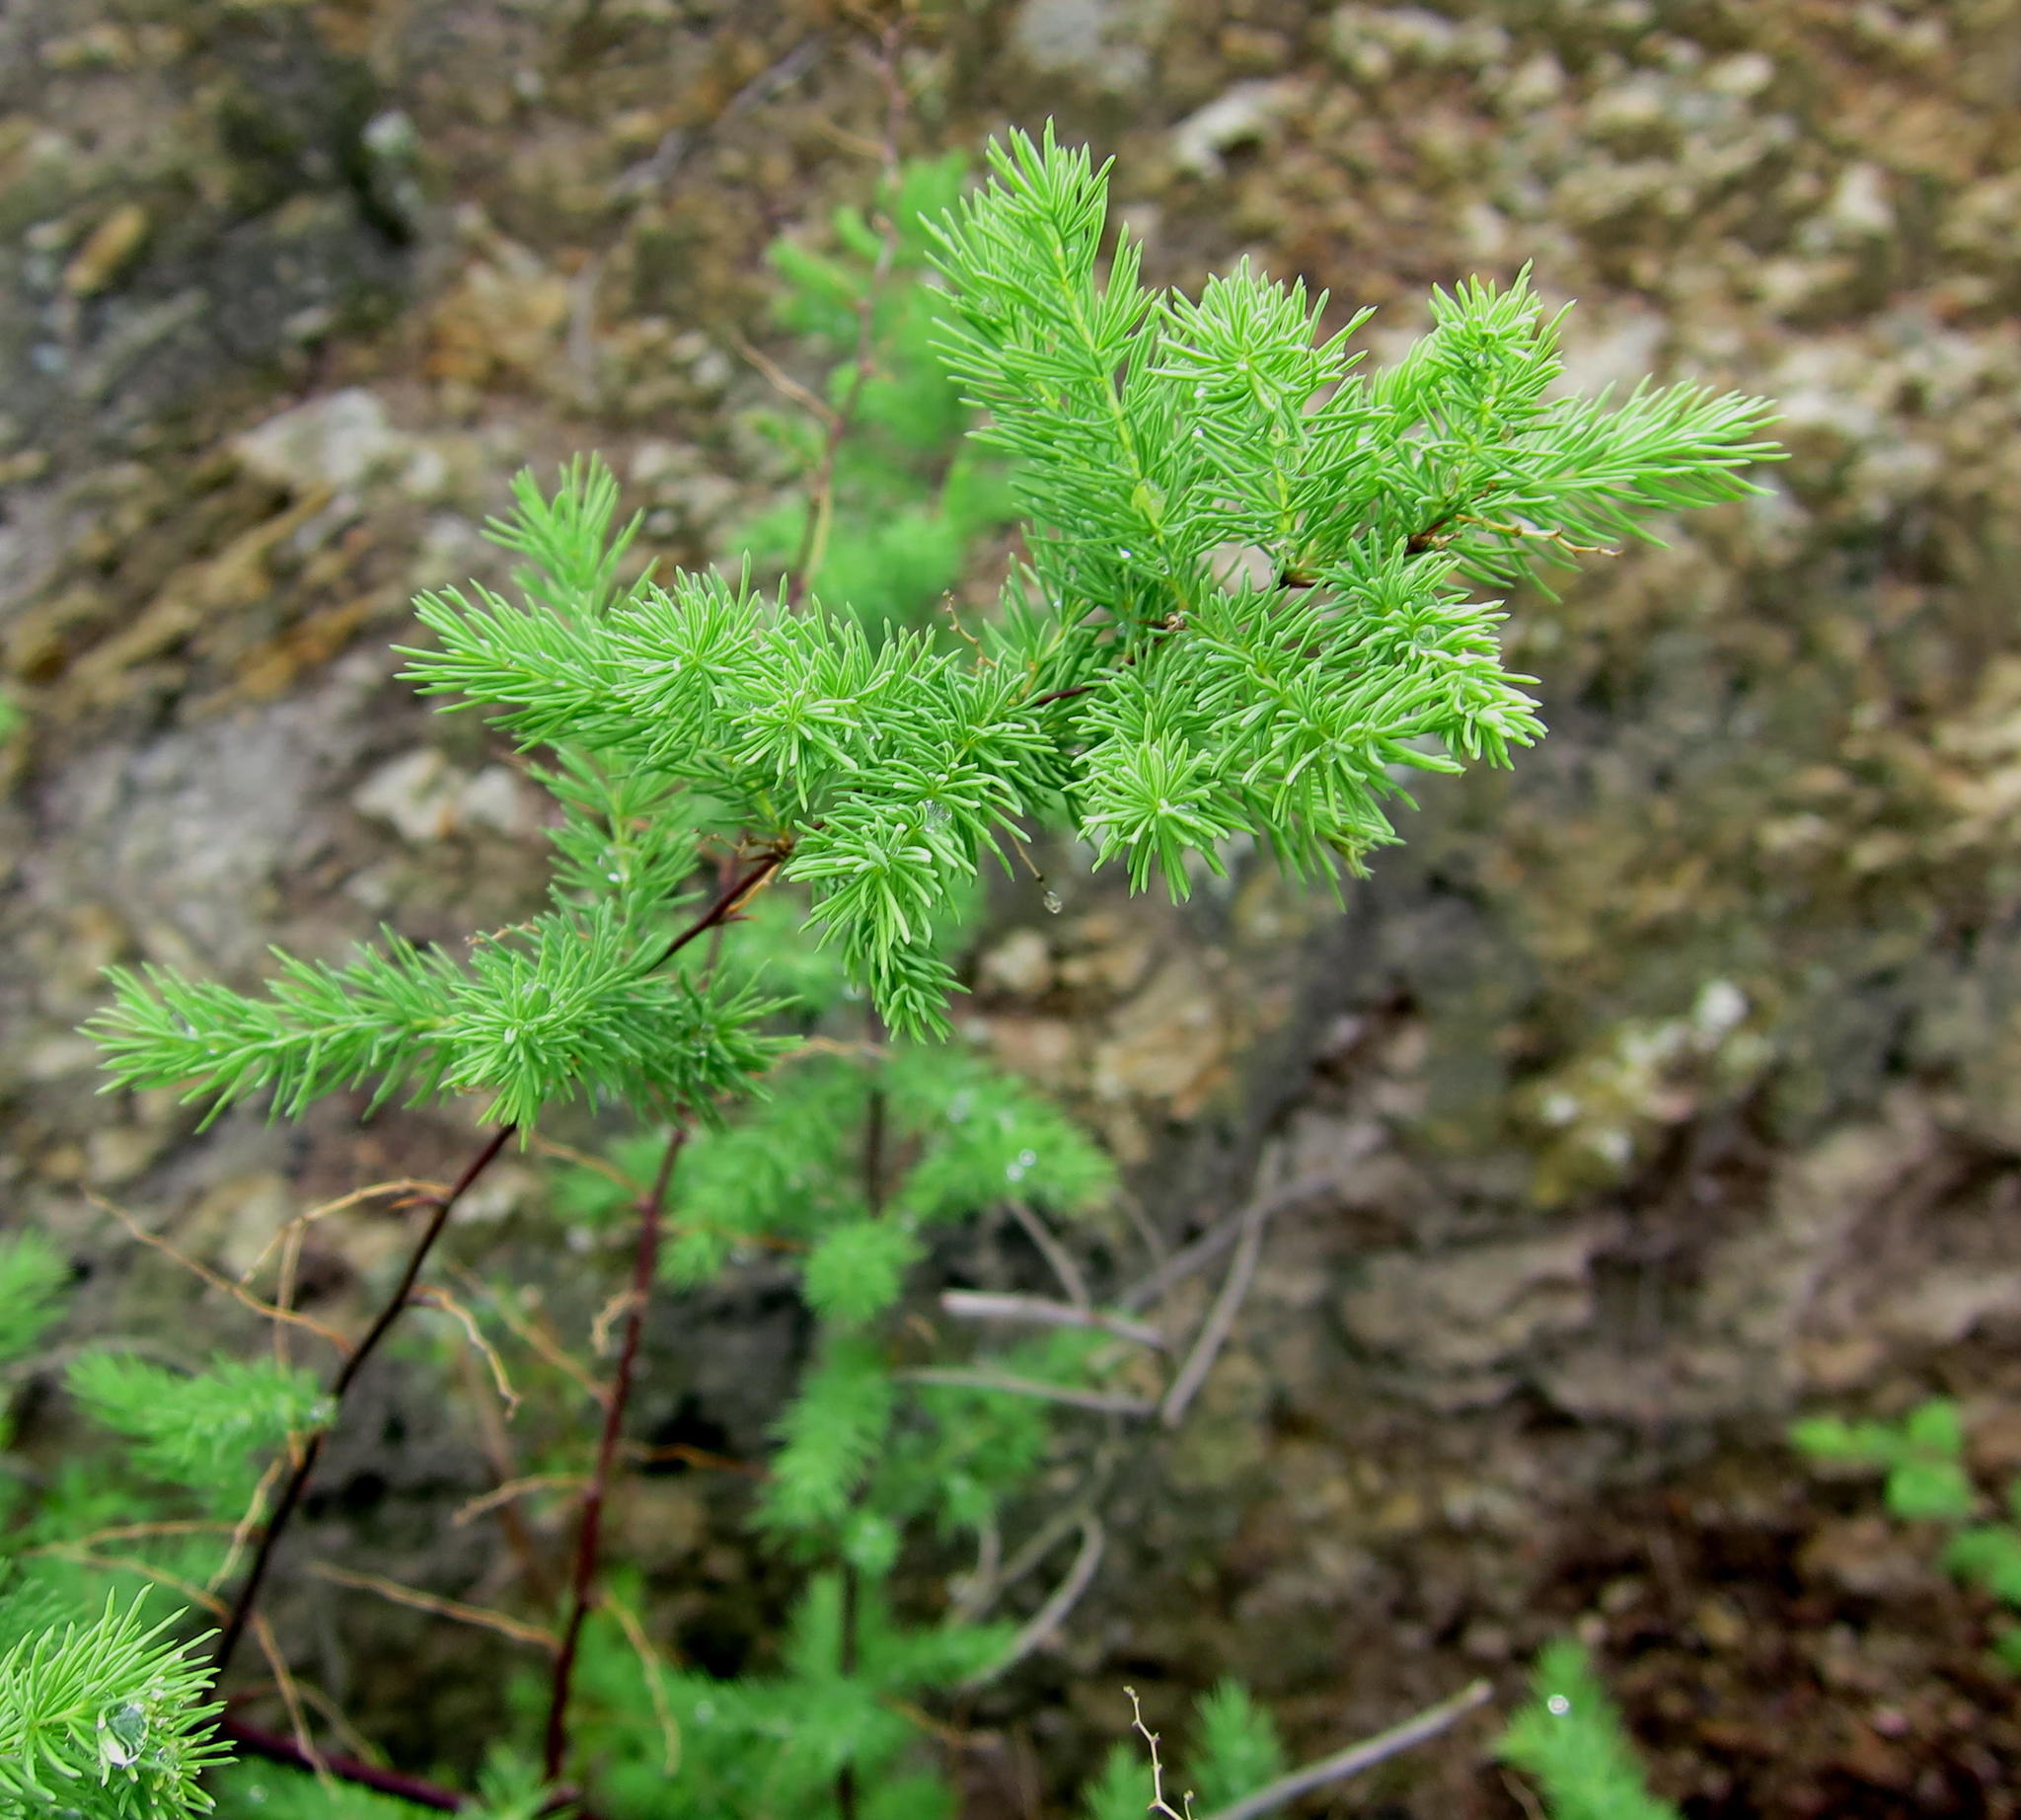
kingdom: Plantae
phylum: Tracheophyta
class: Liliopsida
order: Asparagales
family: Asparagaceae
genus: Asparagus
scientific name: Asparagus rubicundus
